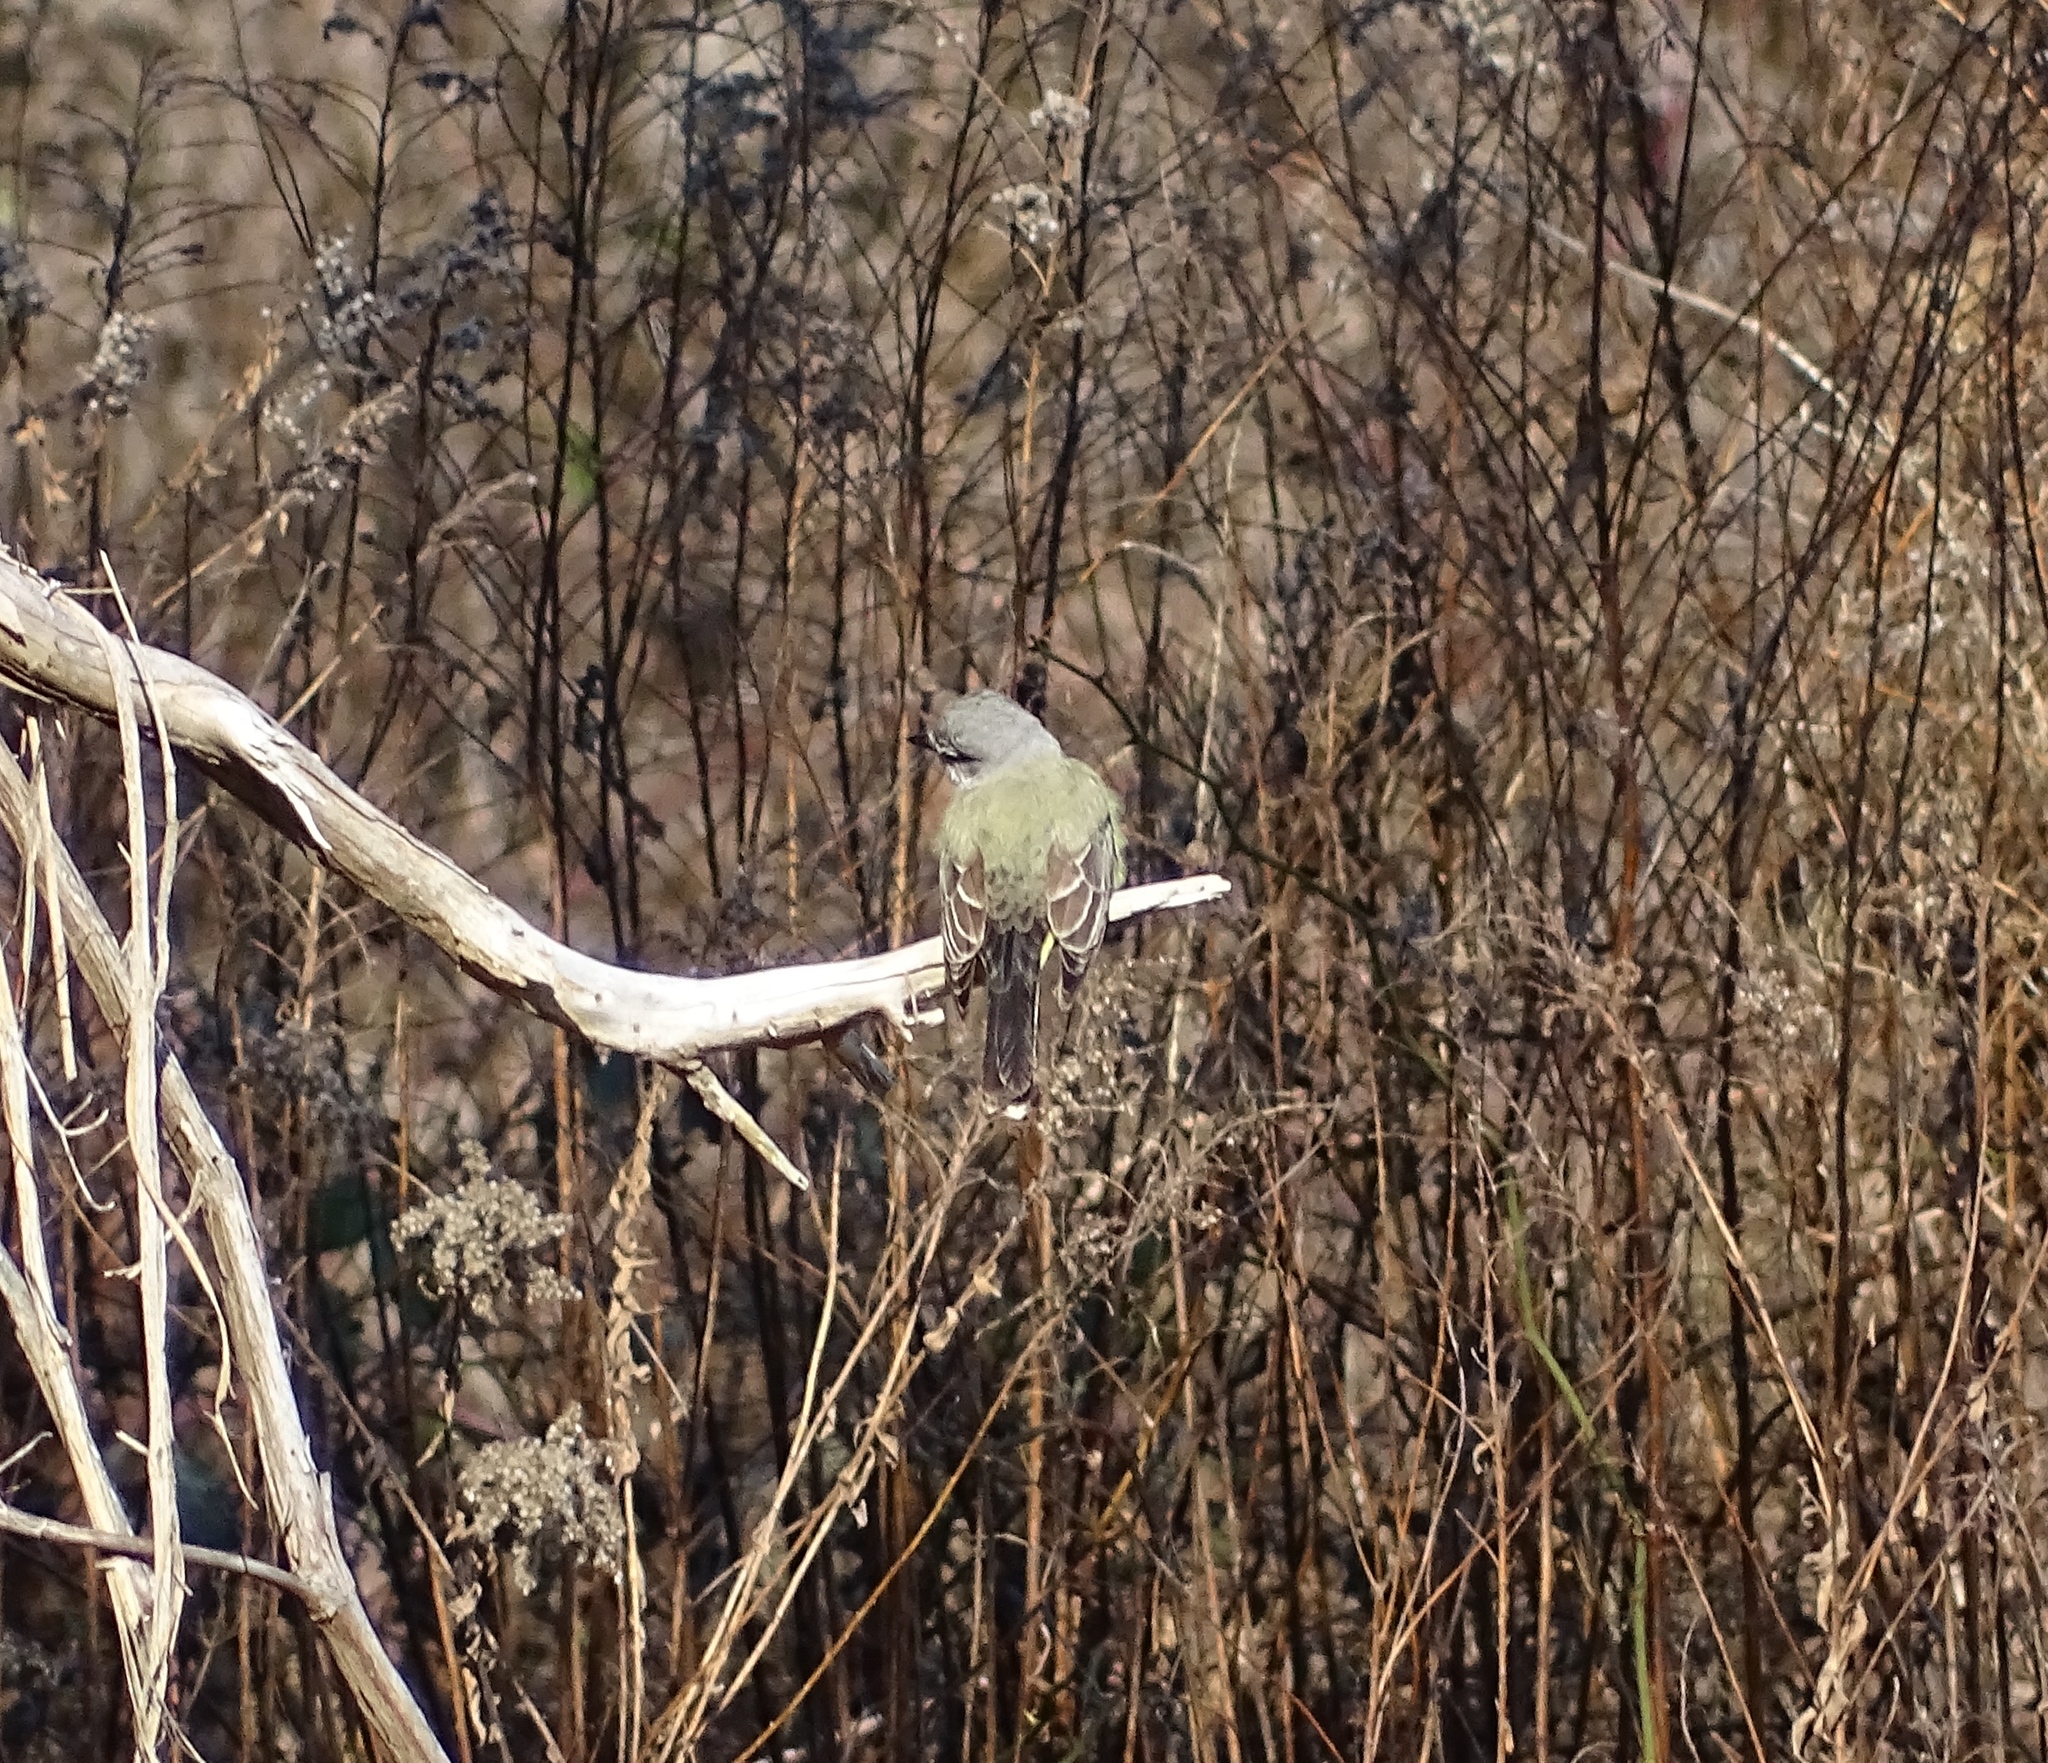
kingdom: Animalia
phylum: Chordata
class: Aves
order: Passeriformes
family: Tyrannidae
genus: Tyrannus
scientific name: Tyrannus verticalis
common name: Western kingbird
